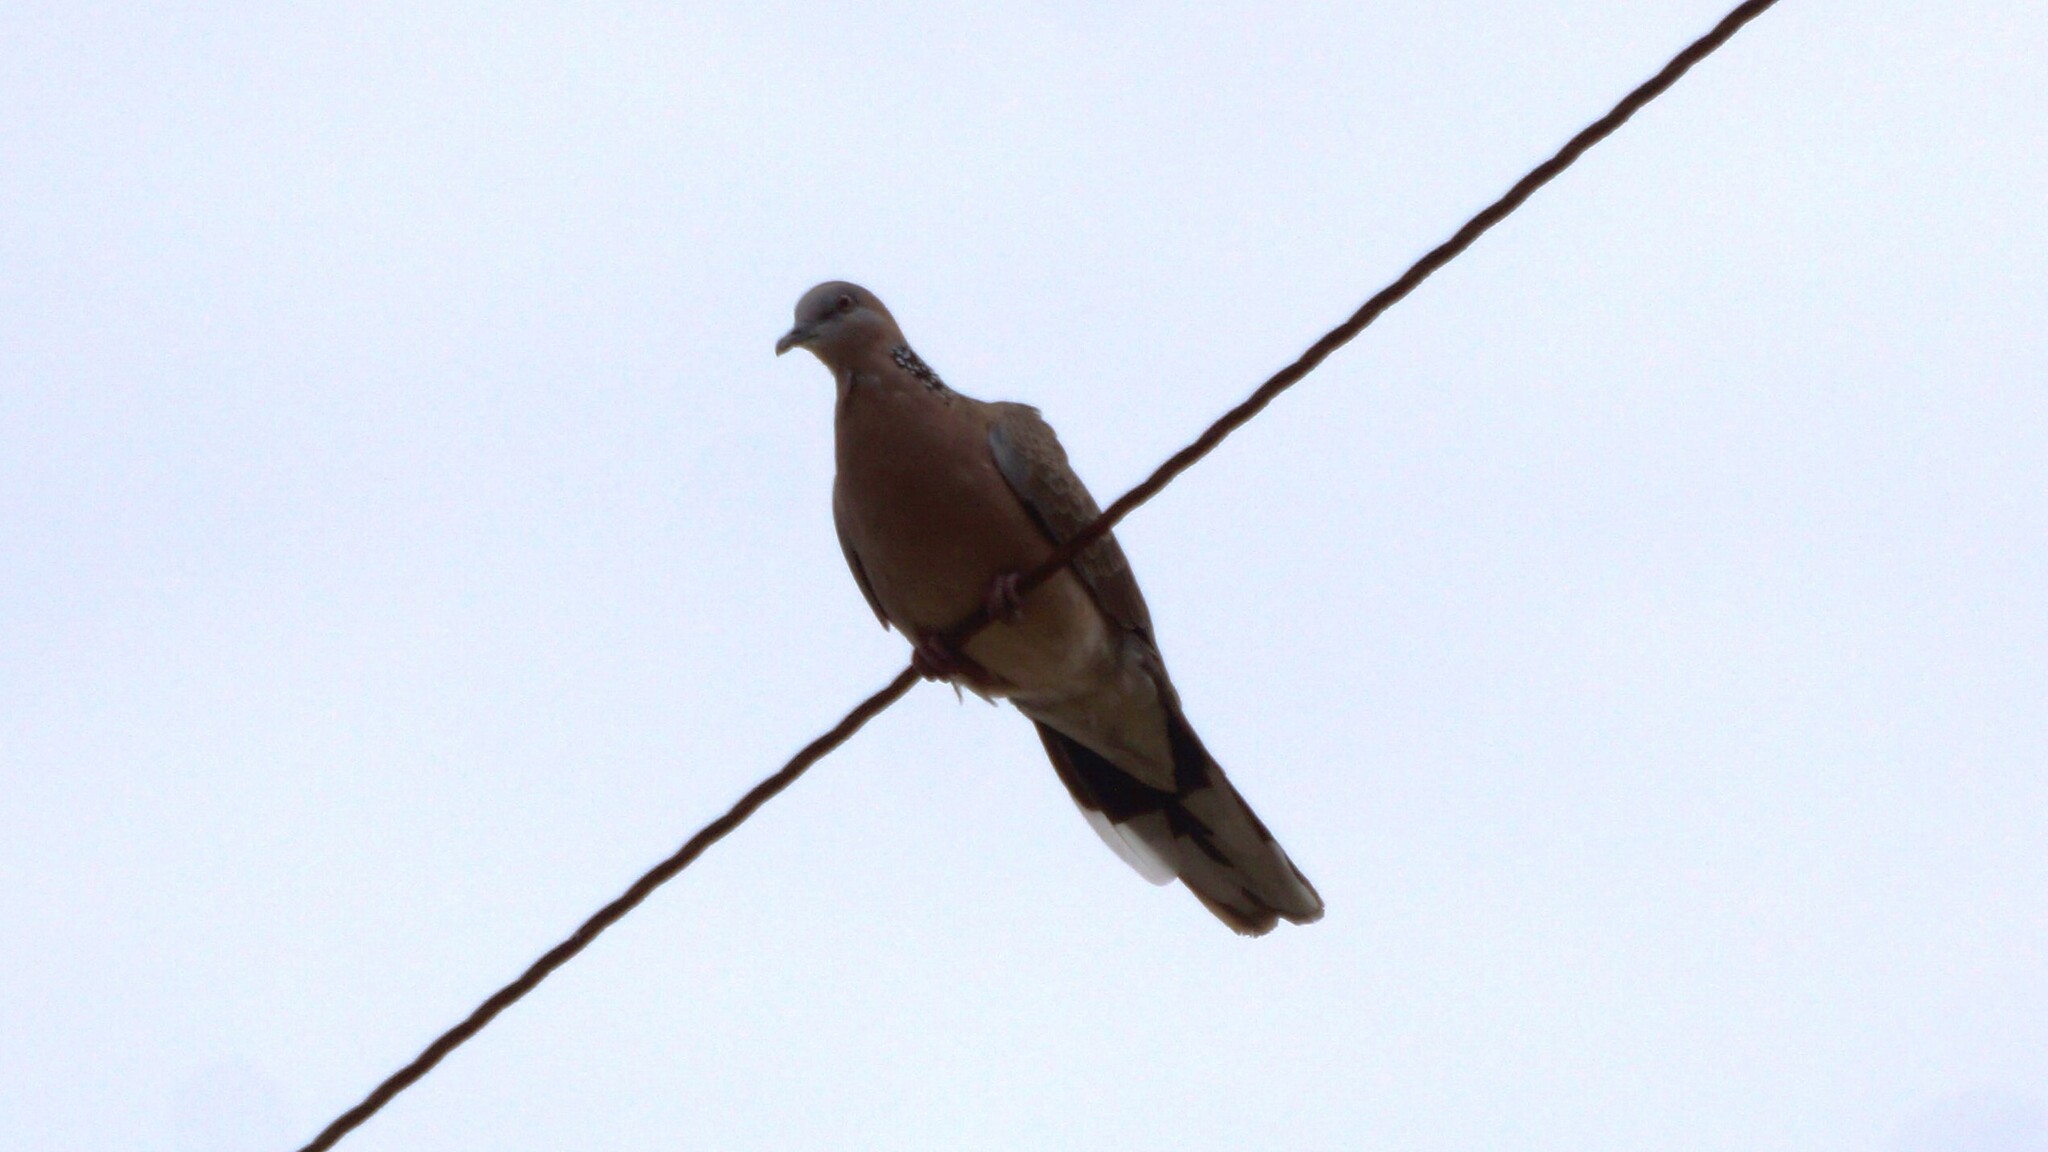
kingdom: Animalia
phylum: Chordata
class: Aves
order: Columbiformes
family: Columbidae
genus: Spilopelia
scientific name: Spilopelia chinensis
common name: Spotted dove
